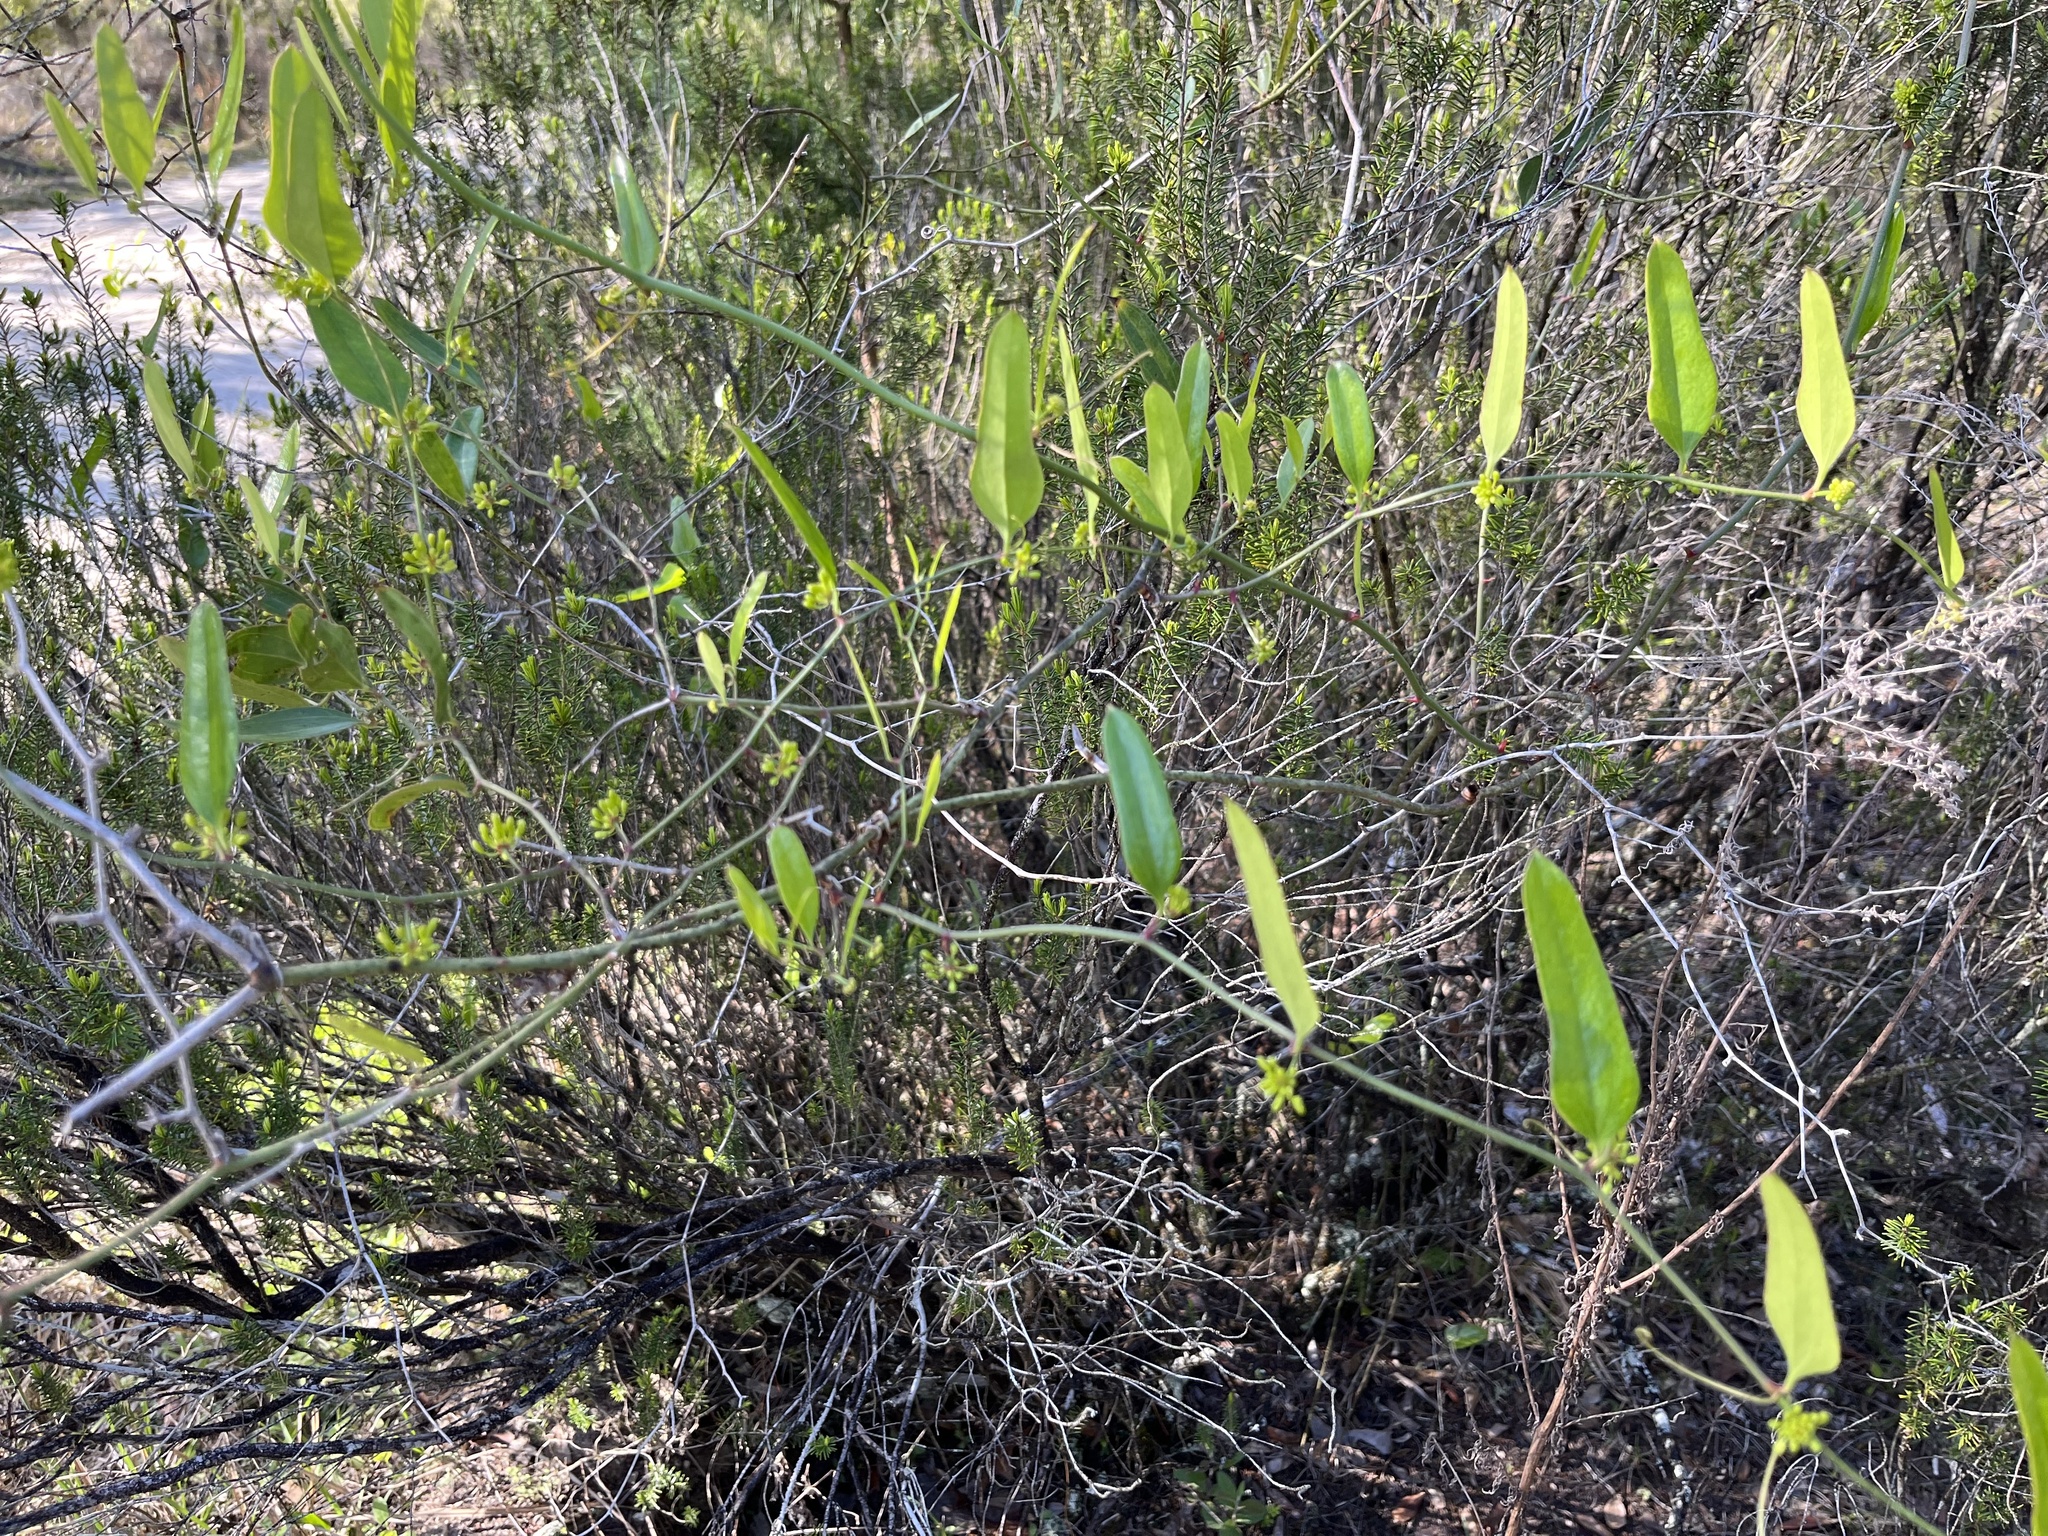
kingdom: Plantae
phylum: Tracheophyta
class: Liliopsida
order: Liliales
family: Smilacaceae
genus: Smilax
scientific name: Smilax laurifolia
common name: Bamboovine
